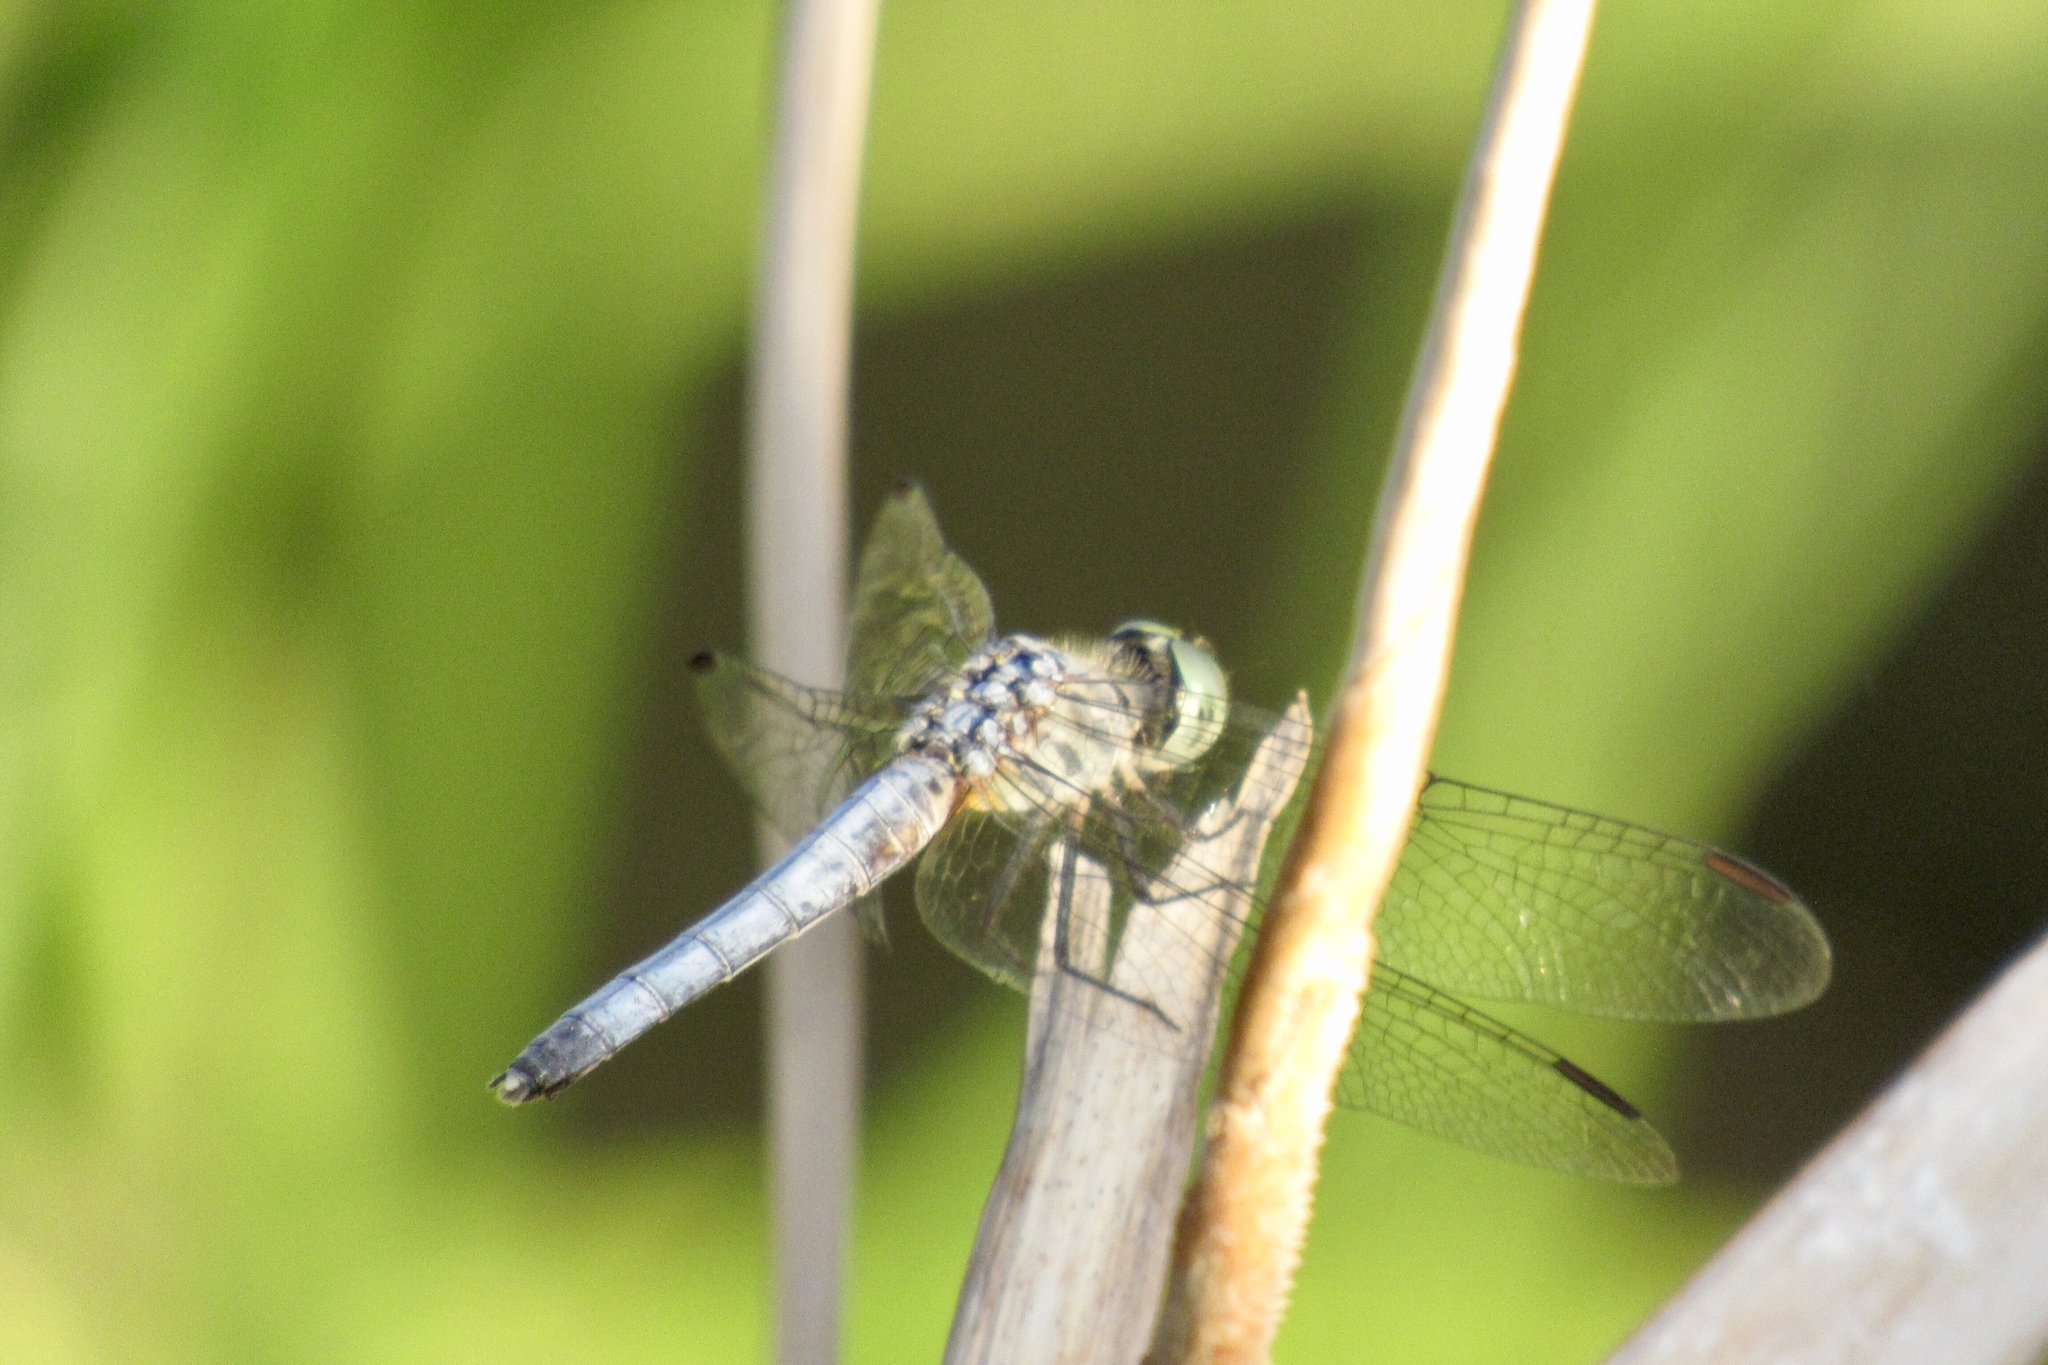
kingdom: Animalia
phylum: Arthropoda
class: Insecta
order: Odonata
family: Libellulidae
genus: Pachydiplax
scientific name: Pachydiplax longipennis
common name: Blue dasher
